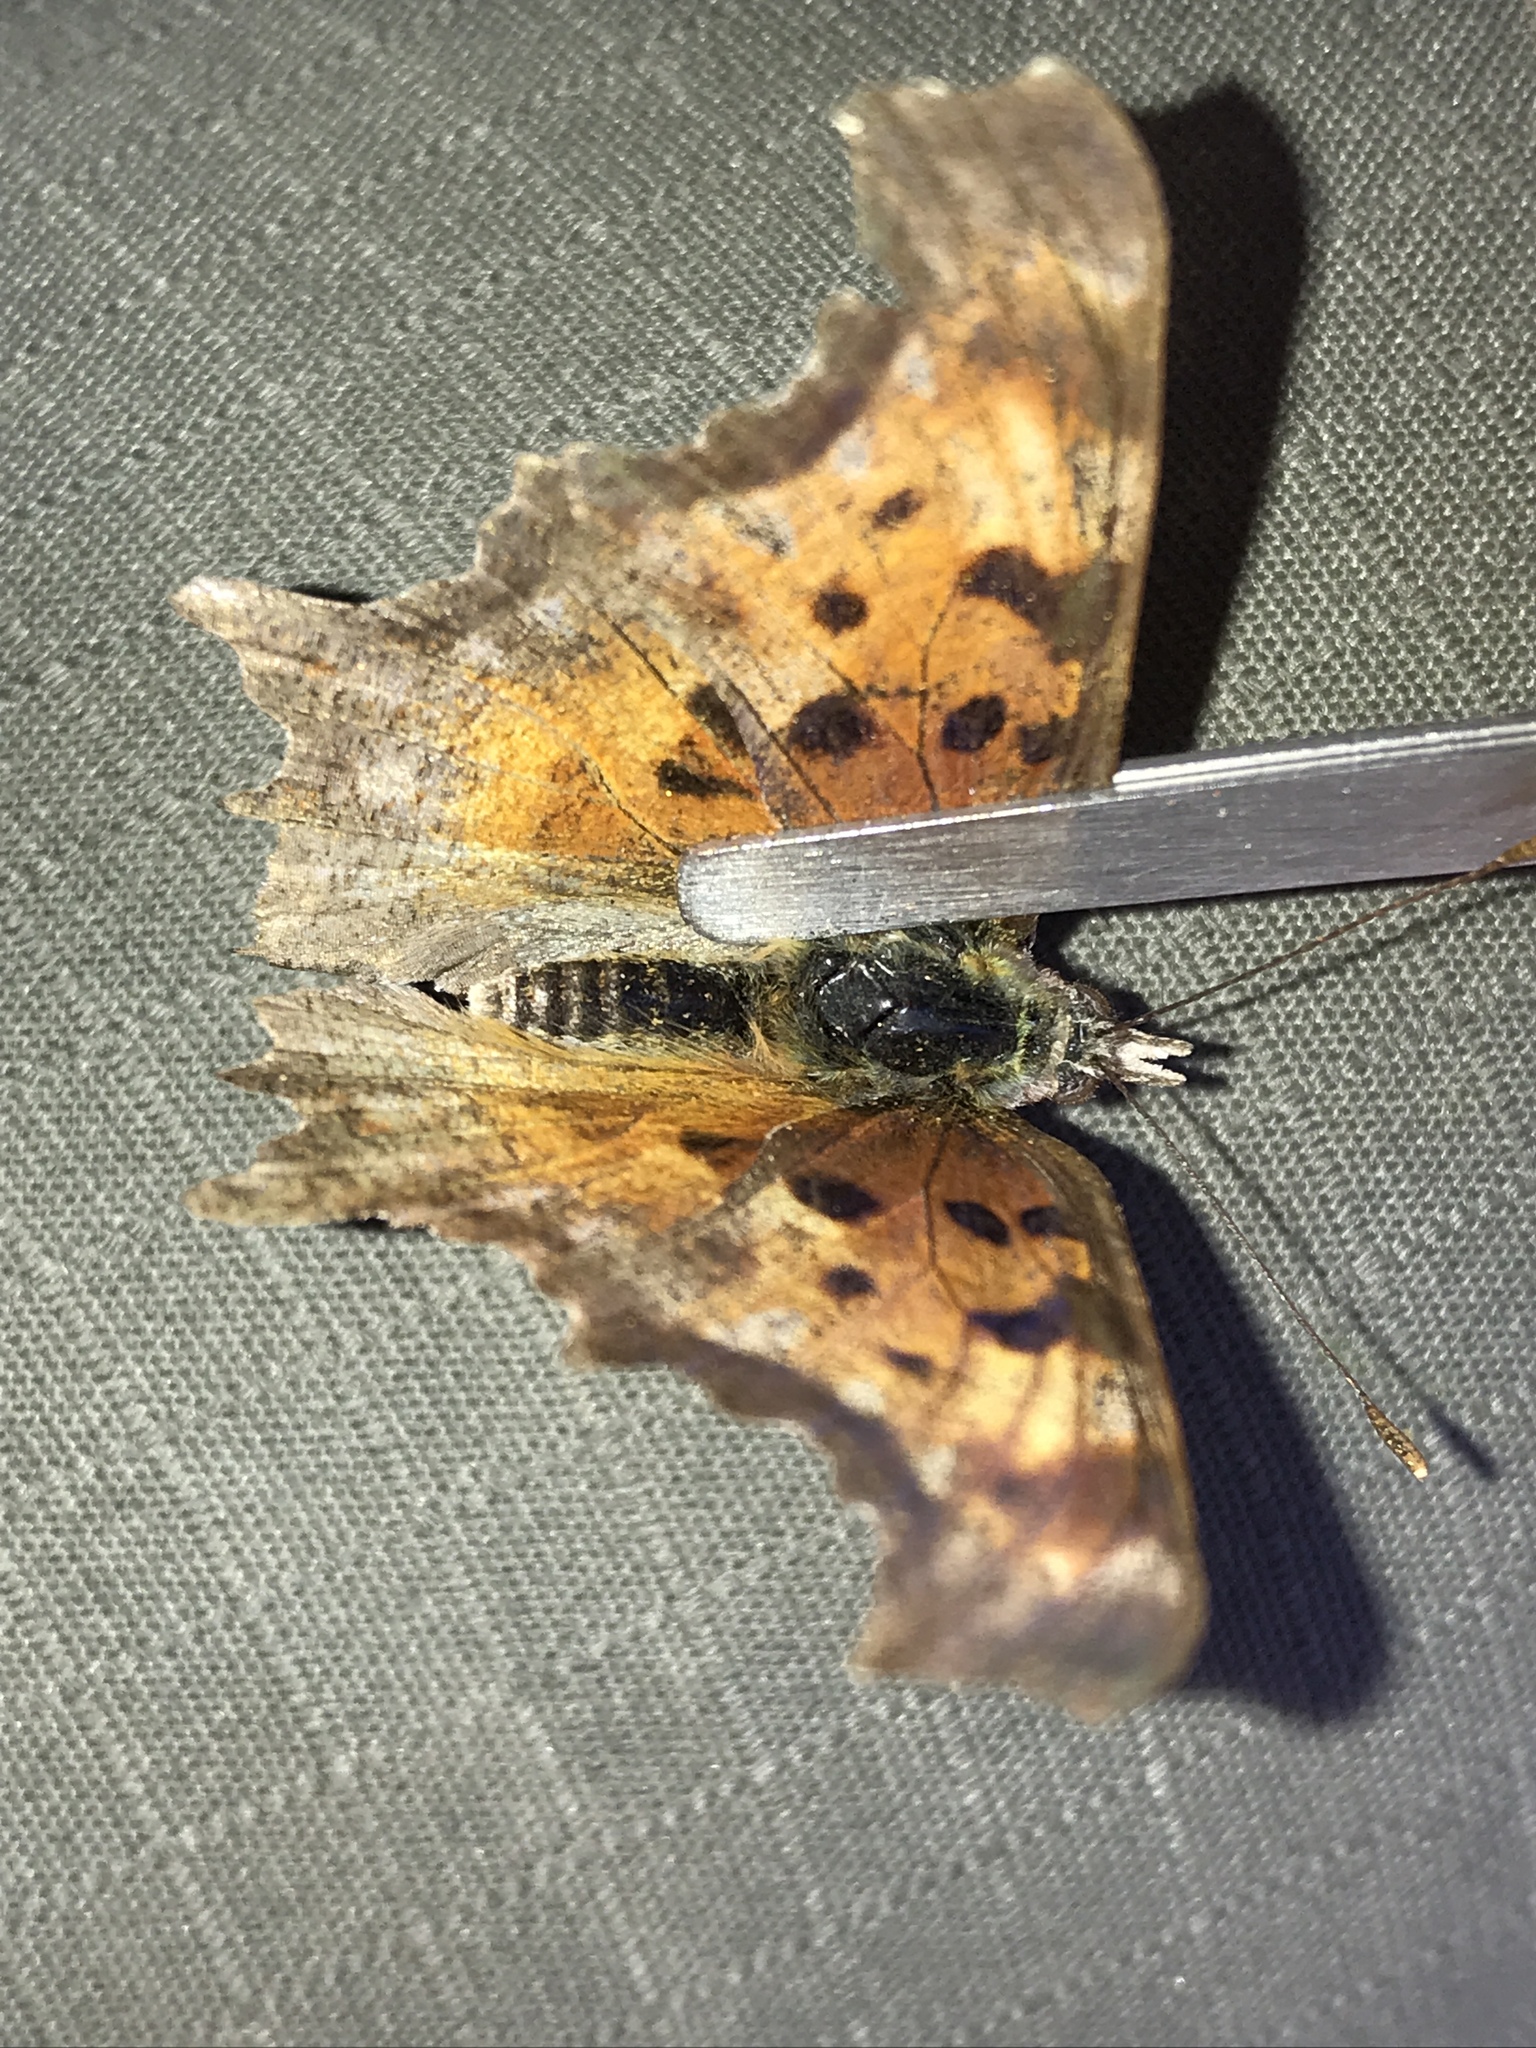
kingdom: Animalia
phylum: Arthropoda
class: Insecta
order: Lepidoptera
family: Nymphalidae
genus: Polygonia
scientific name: Polygonia gracilis
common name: Hoary comma
